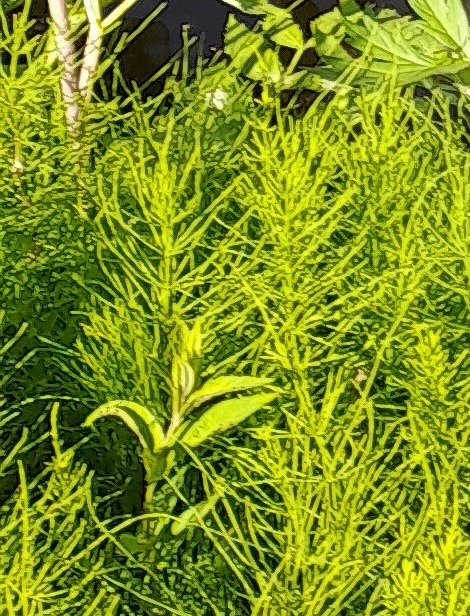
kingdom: Plantae
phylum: Tracheophyta
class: Polypodiopsida
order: Equisetales
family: Equisetaceae
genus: Equisetum
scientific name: Equisetum arvense
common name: Field horsetail
